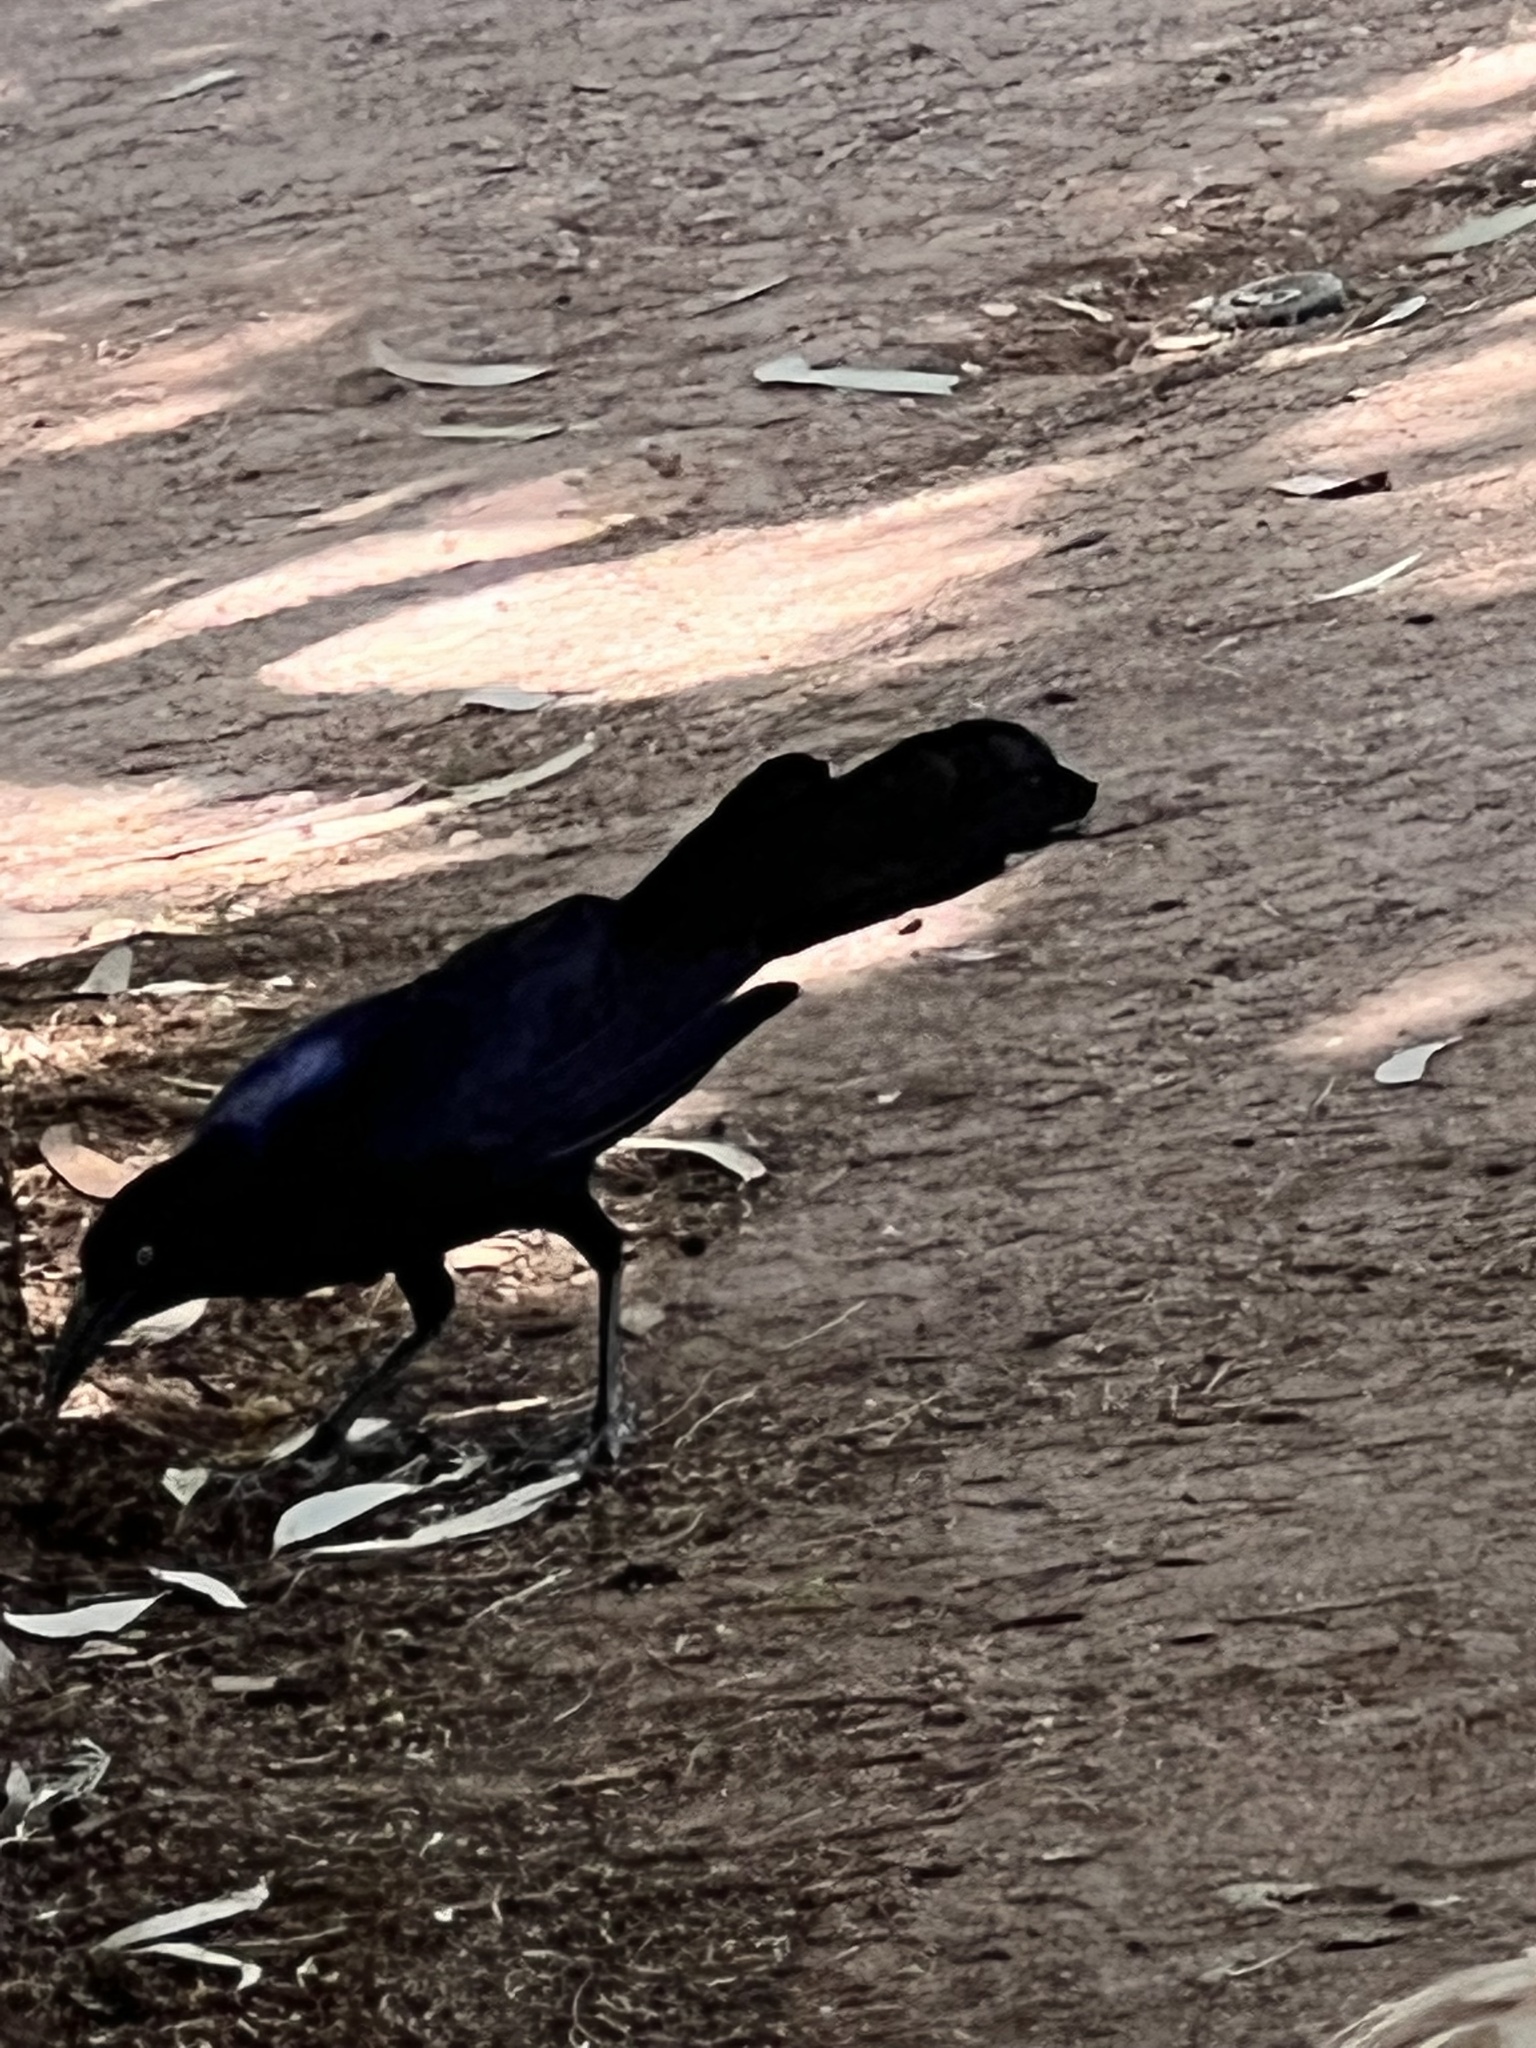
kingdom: Animalia
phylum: Chordata
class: Aves
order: Passeriformes
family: Icteridae
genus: Quiscalus
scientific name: Quiscalus mexicanus
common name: Great-tailed grackle
